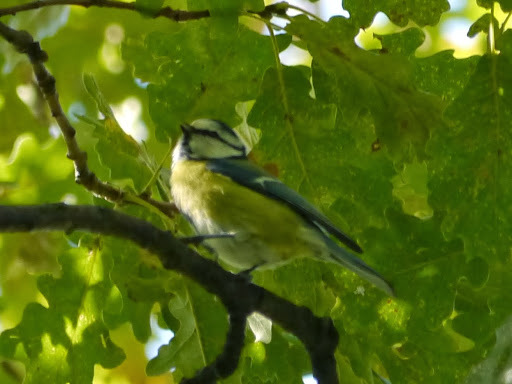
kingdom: Animalia
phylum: Chordata
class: Aves
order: Passeriformes
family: Paridae
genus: Cyanistes
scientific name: Cyanistes caeruleus
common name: Eurasian blue tit
